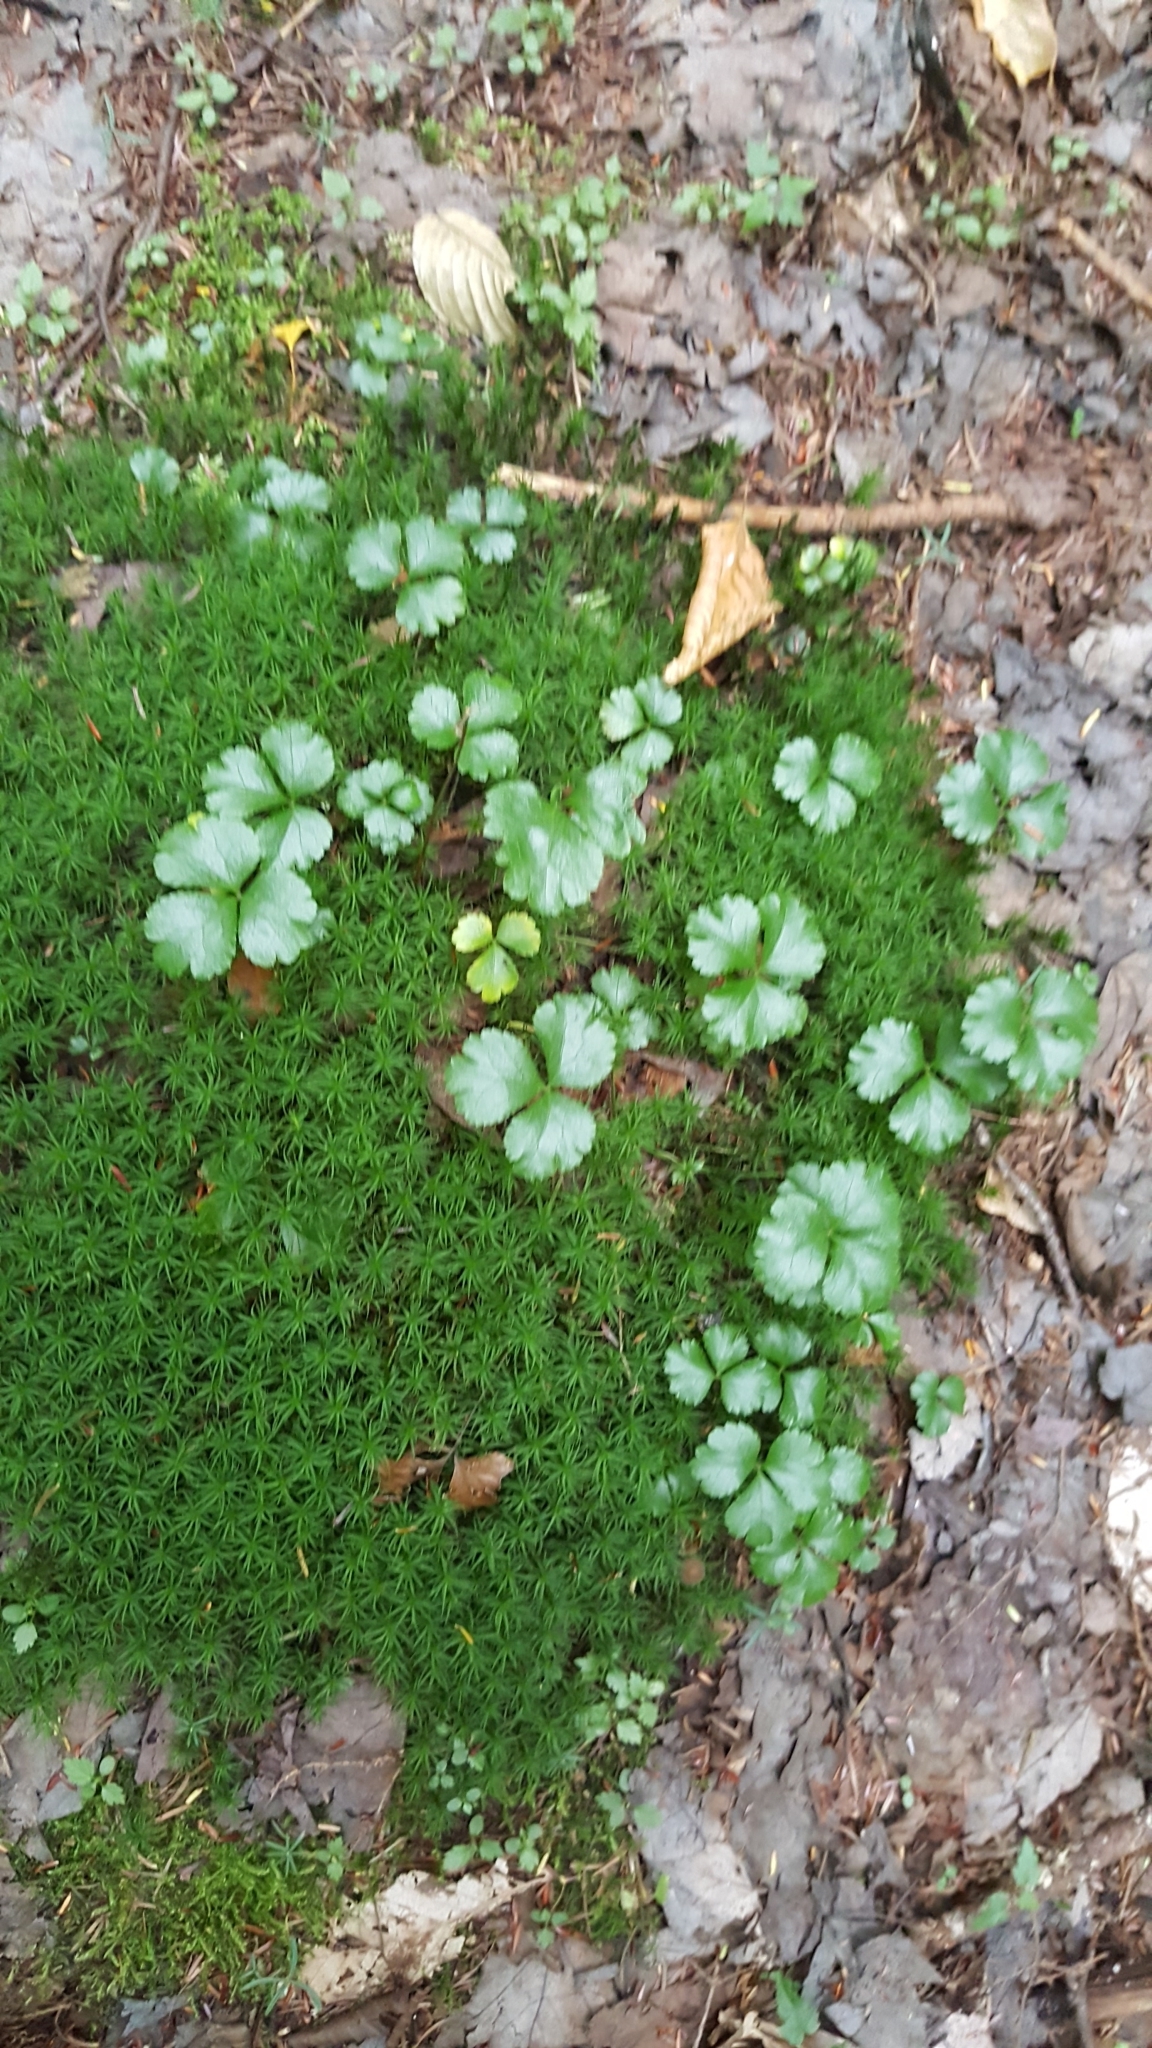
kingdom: Plantae
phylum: Tracheophyta
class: Magnoliopsida
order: Ranunculales
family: Ranunculaceae
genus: Coptis
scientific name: Coptis trifolia
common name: Canker-root
